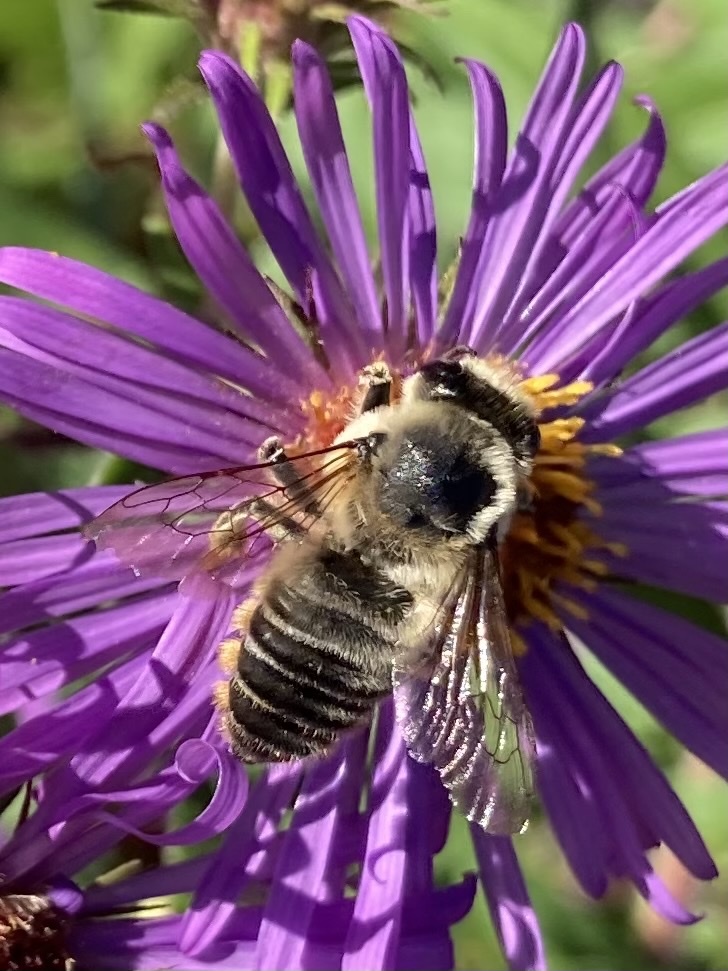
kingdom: Animalia
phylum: Arthropoda
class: Insecta
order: Hymenoptera
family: Megachilidae
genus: Megachile
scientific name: Megachile latimanus
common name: Leafcutting bee
